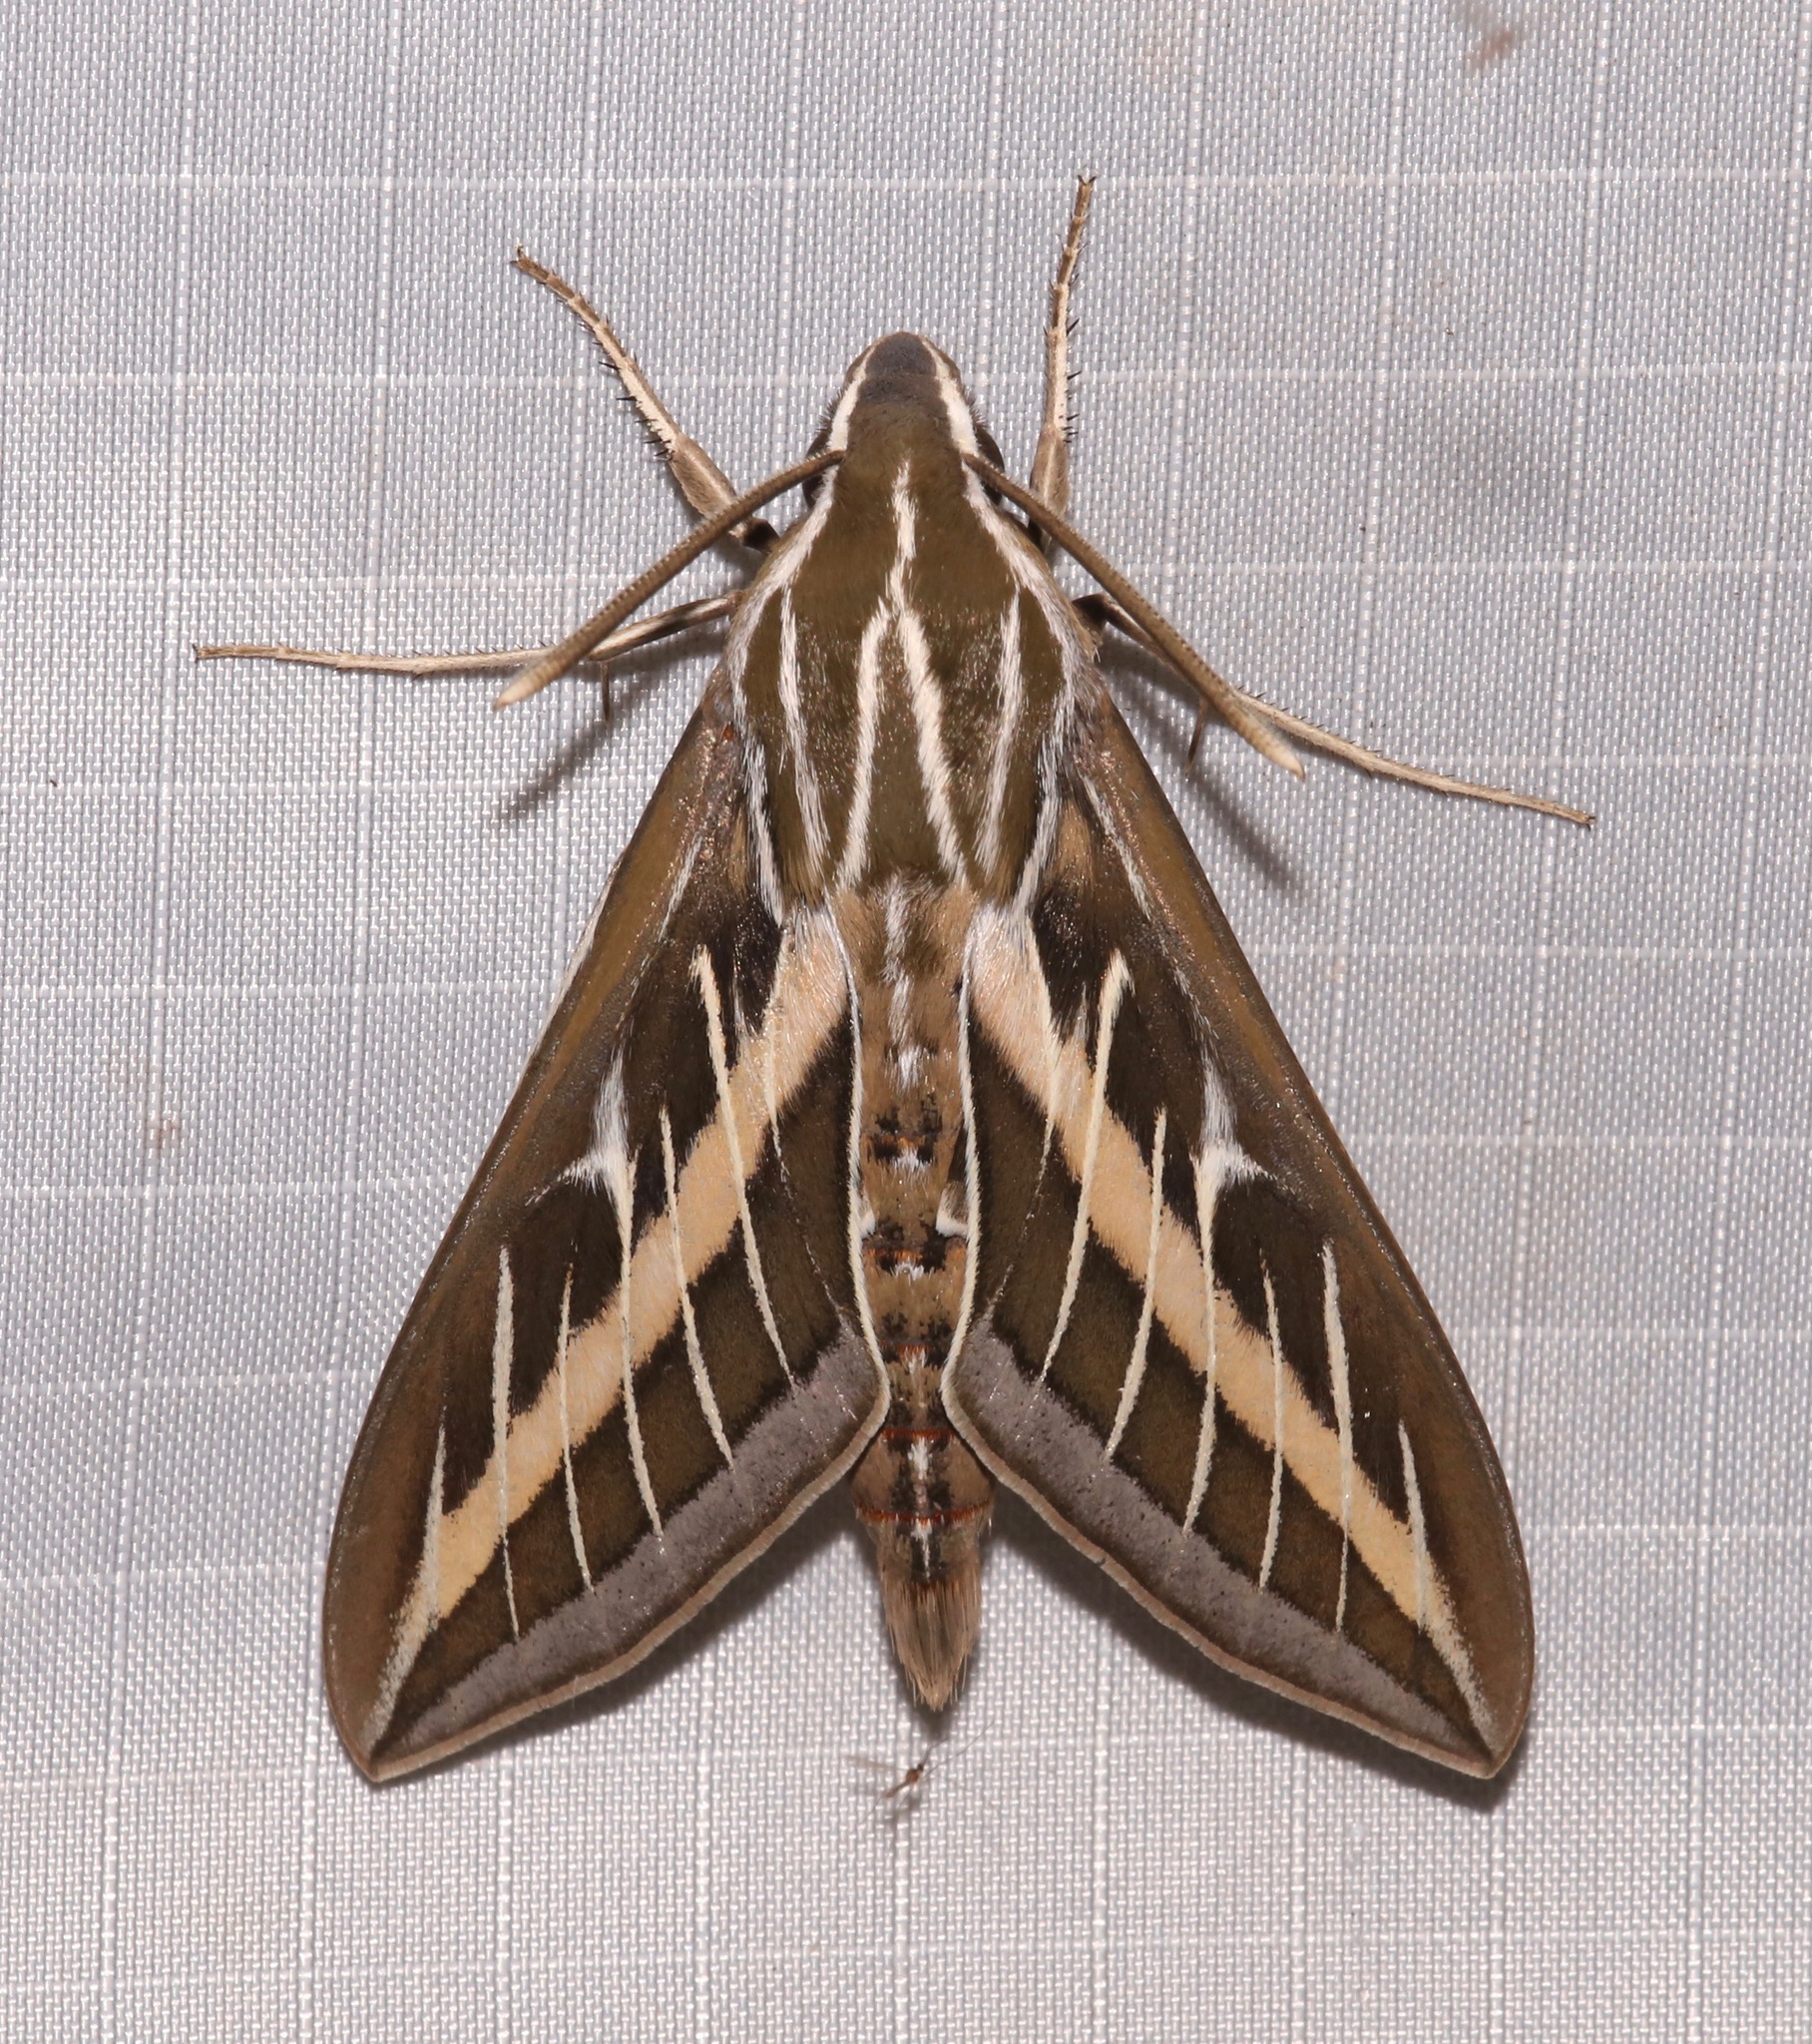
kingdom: Animalia
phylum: Arthropoda
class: Insecta
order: Lepidoptera
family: Sphingidae
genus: Hyles
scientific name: Hyles lineata
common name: White-lined sphinx
